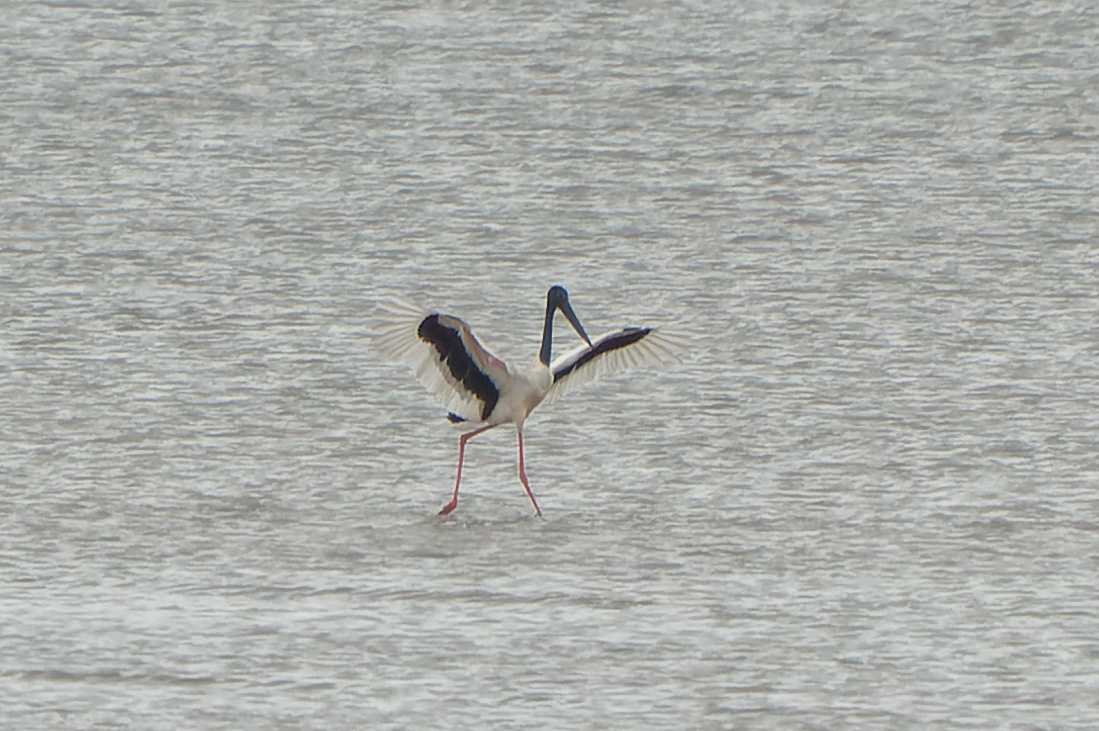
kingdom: Animalia
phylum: Chordata
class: Aves
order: Ciconiiformes
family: Ciconiidae
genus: Ephippiorhynchus
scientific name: Ephippiorhynchus asiaticus
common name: Black-necked stork
